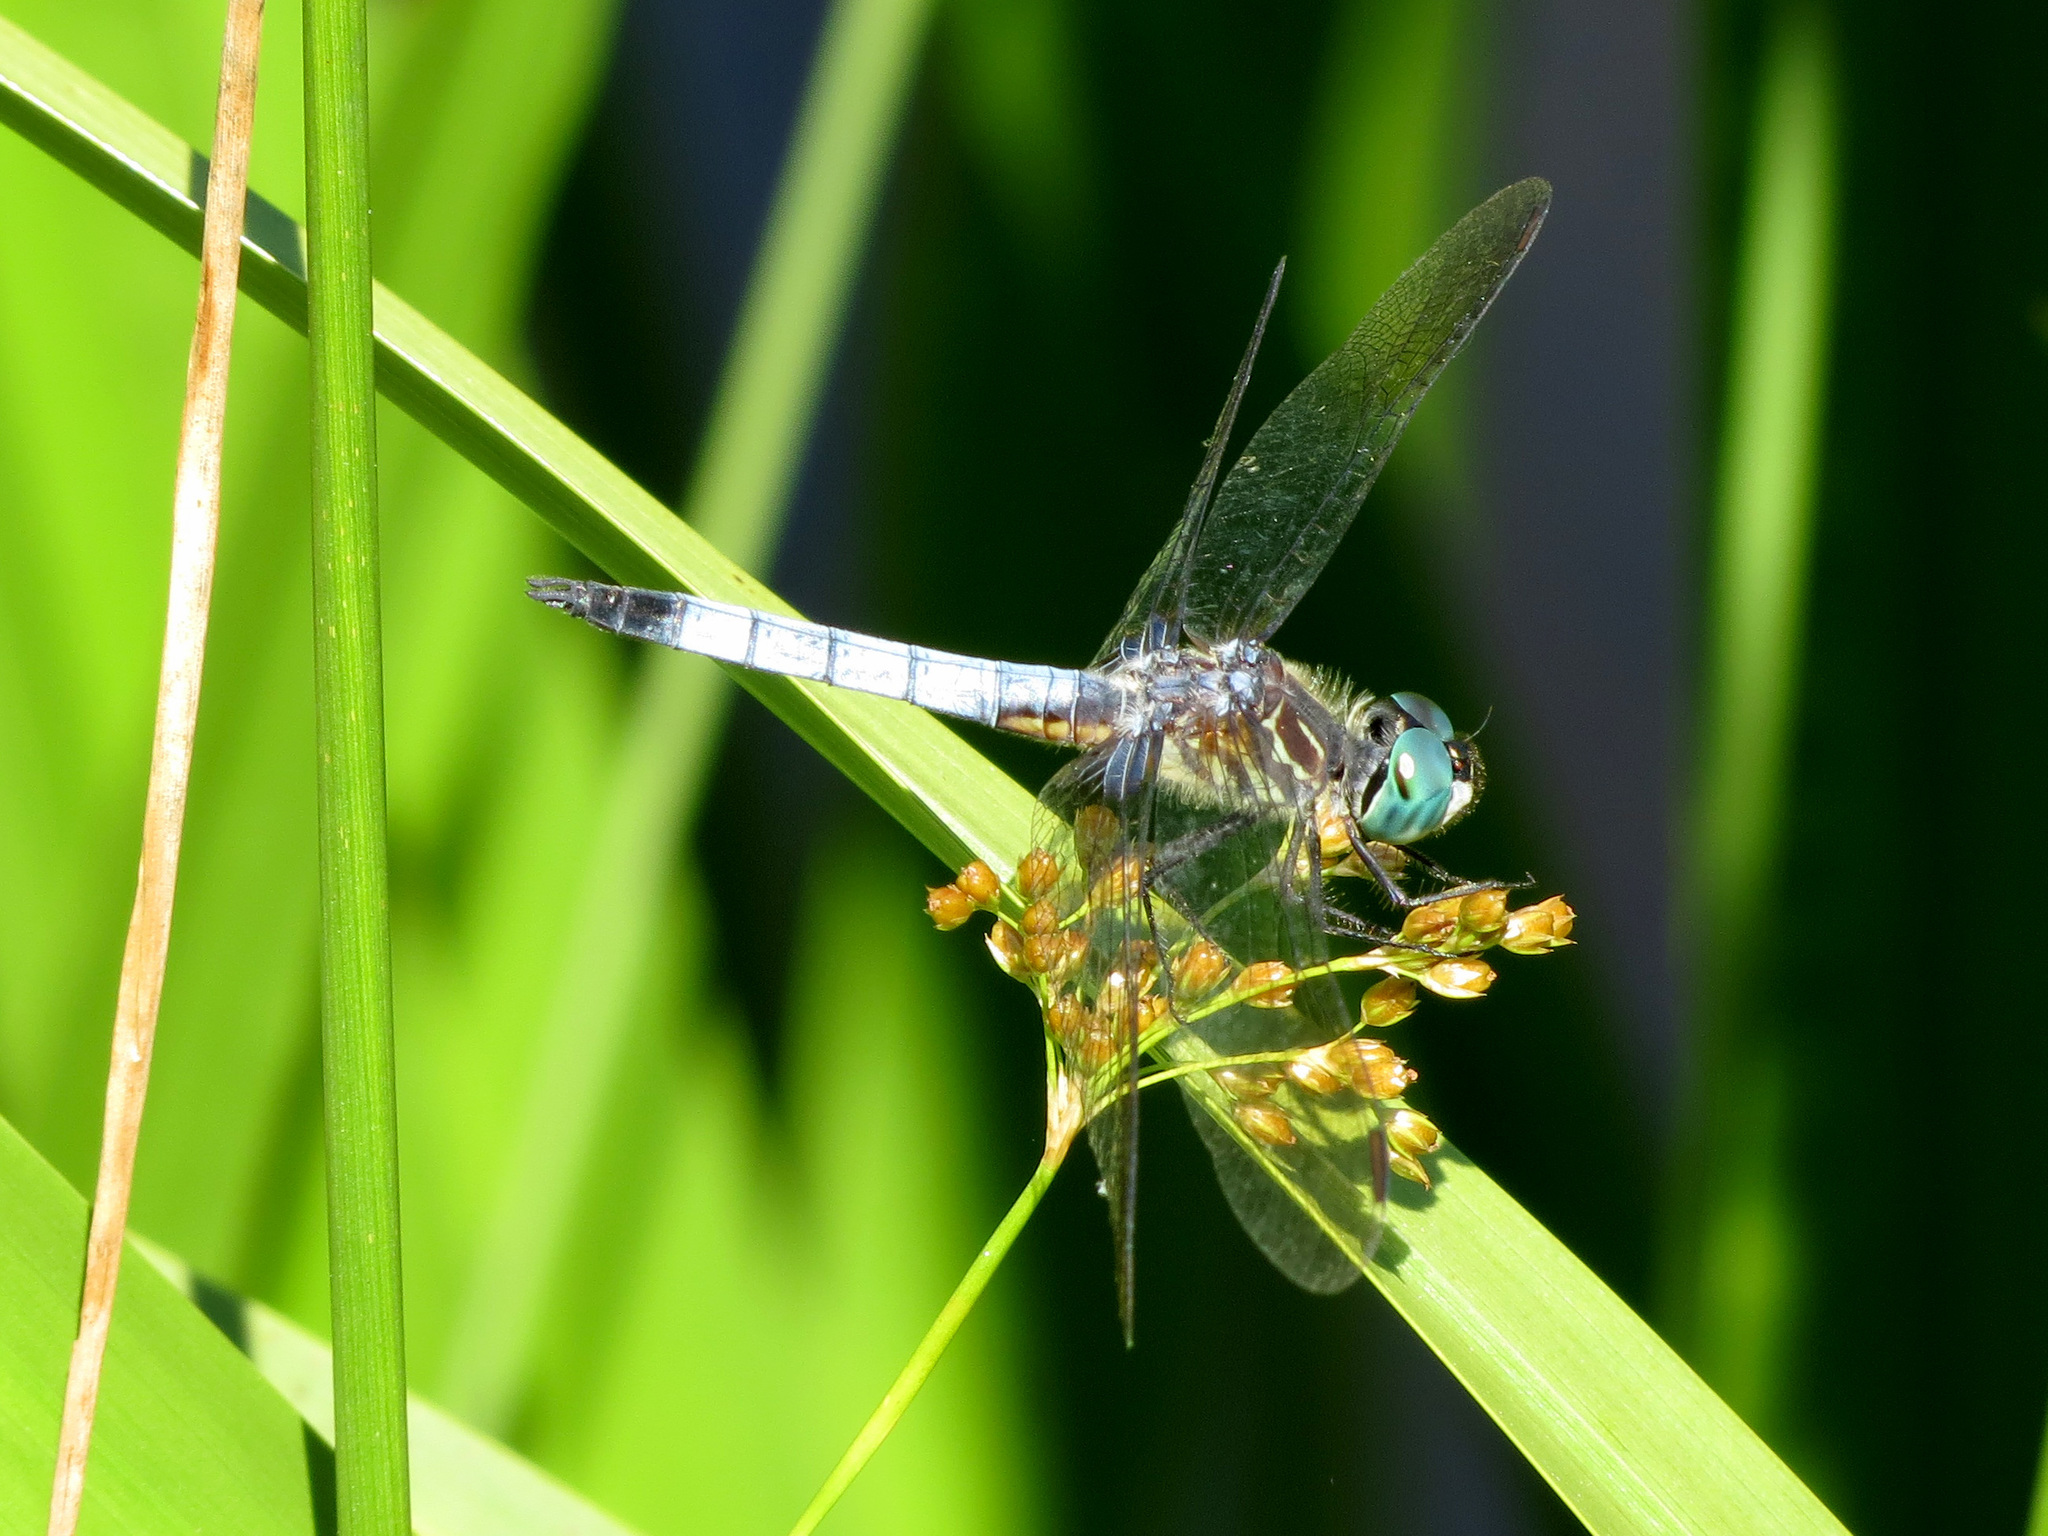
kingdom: Animalia
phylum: Arthropoda
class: Insecta
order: Odonata
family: Libellulidae
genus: Pachydiplax
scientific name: Pachydiplax longipennis
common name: Blue dasher
